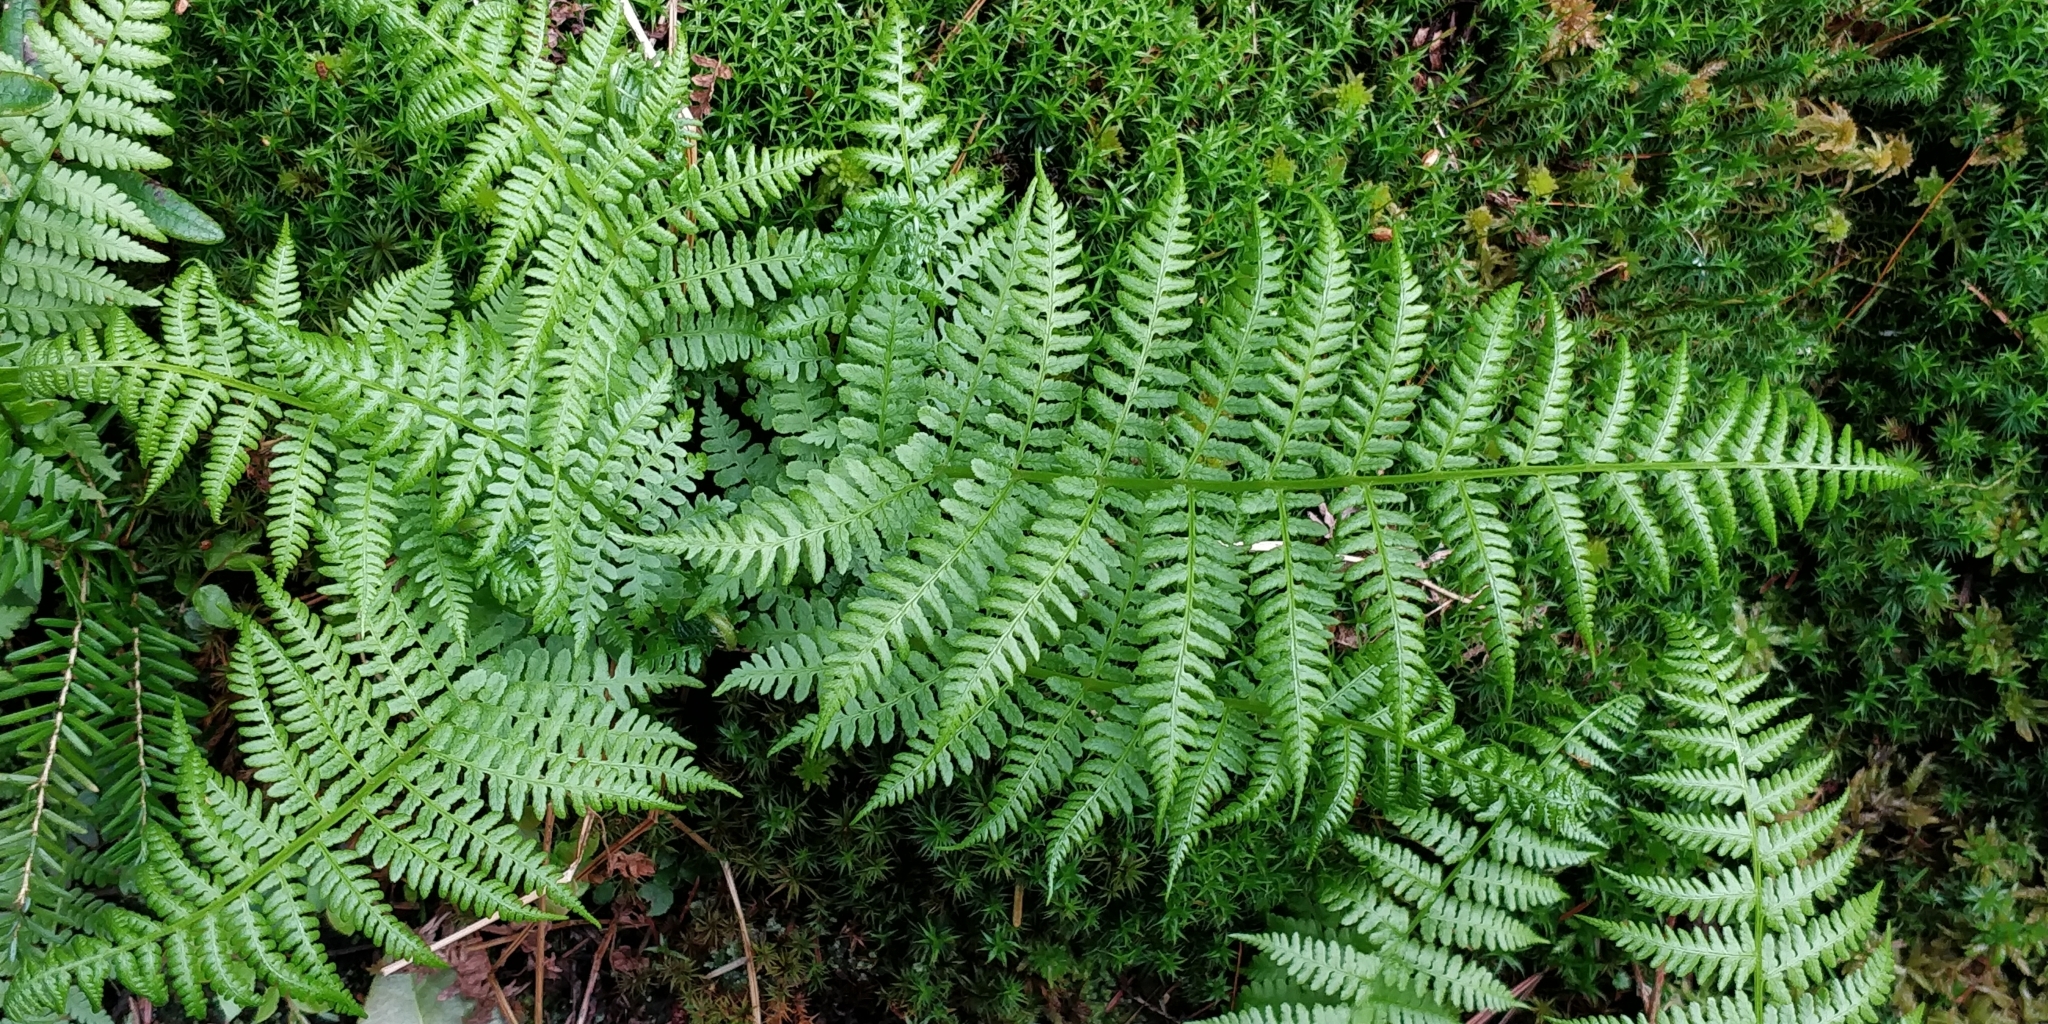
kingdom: Plantae
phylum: Tracheophyta
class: Polypodiopsida
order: Polypodiales
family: Athyriaceae
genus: Athyrium
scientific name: Athyrium filix-femina
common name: Lady fern
